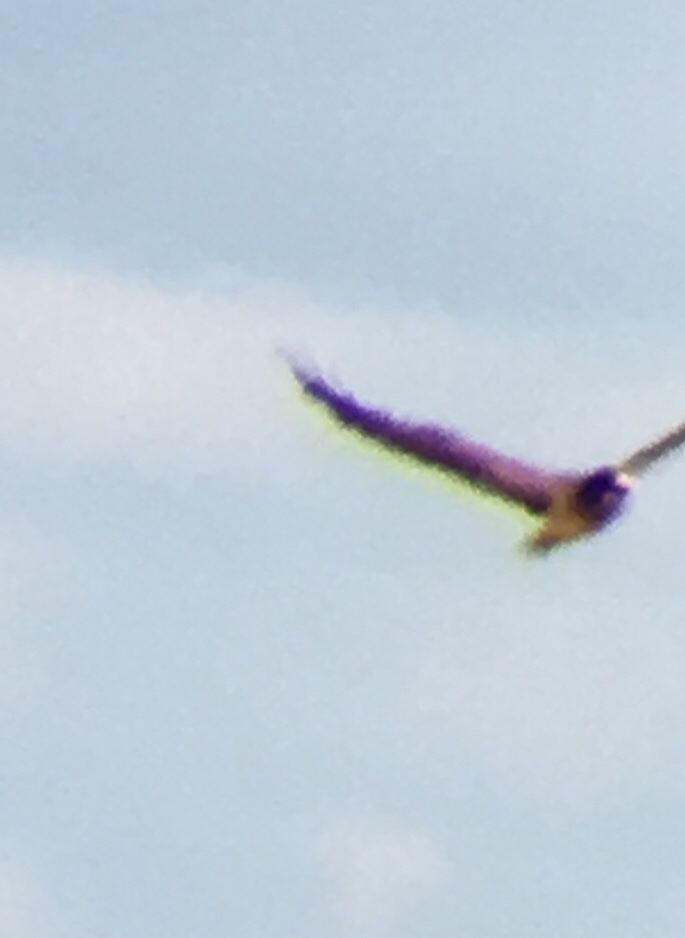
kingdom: Animalia
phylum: Chordata
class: Aves
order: Accipitriformes
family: Accipitridae
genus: Buteo
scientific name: Buteo swainsoni
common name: Swainson's hawk
